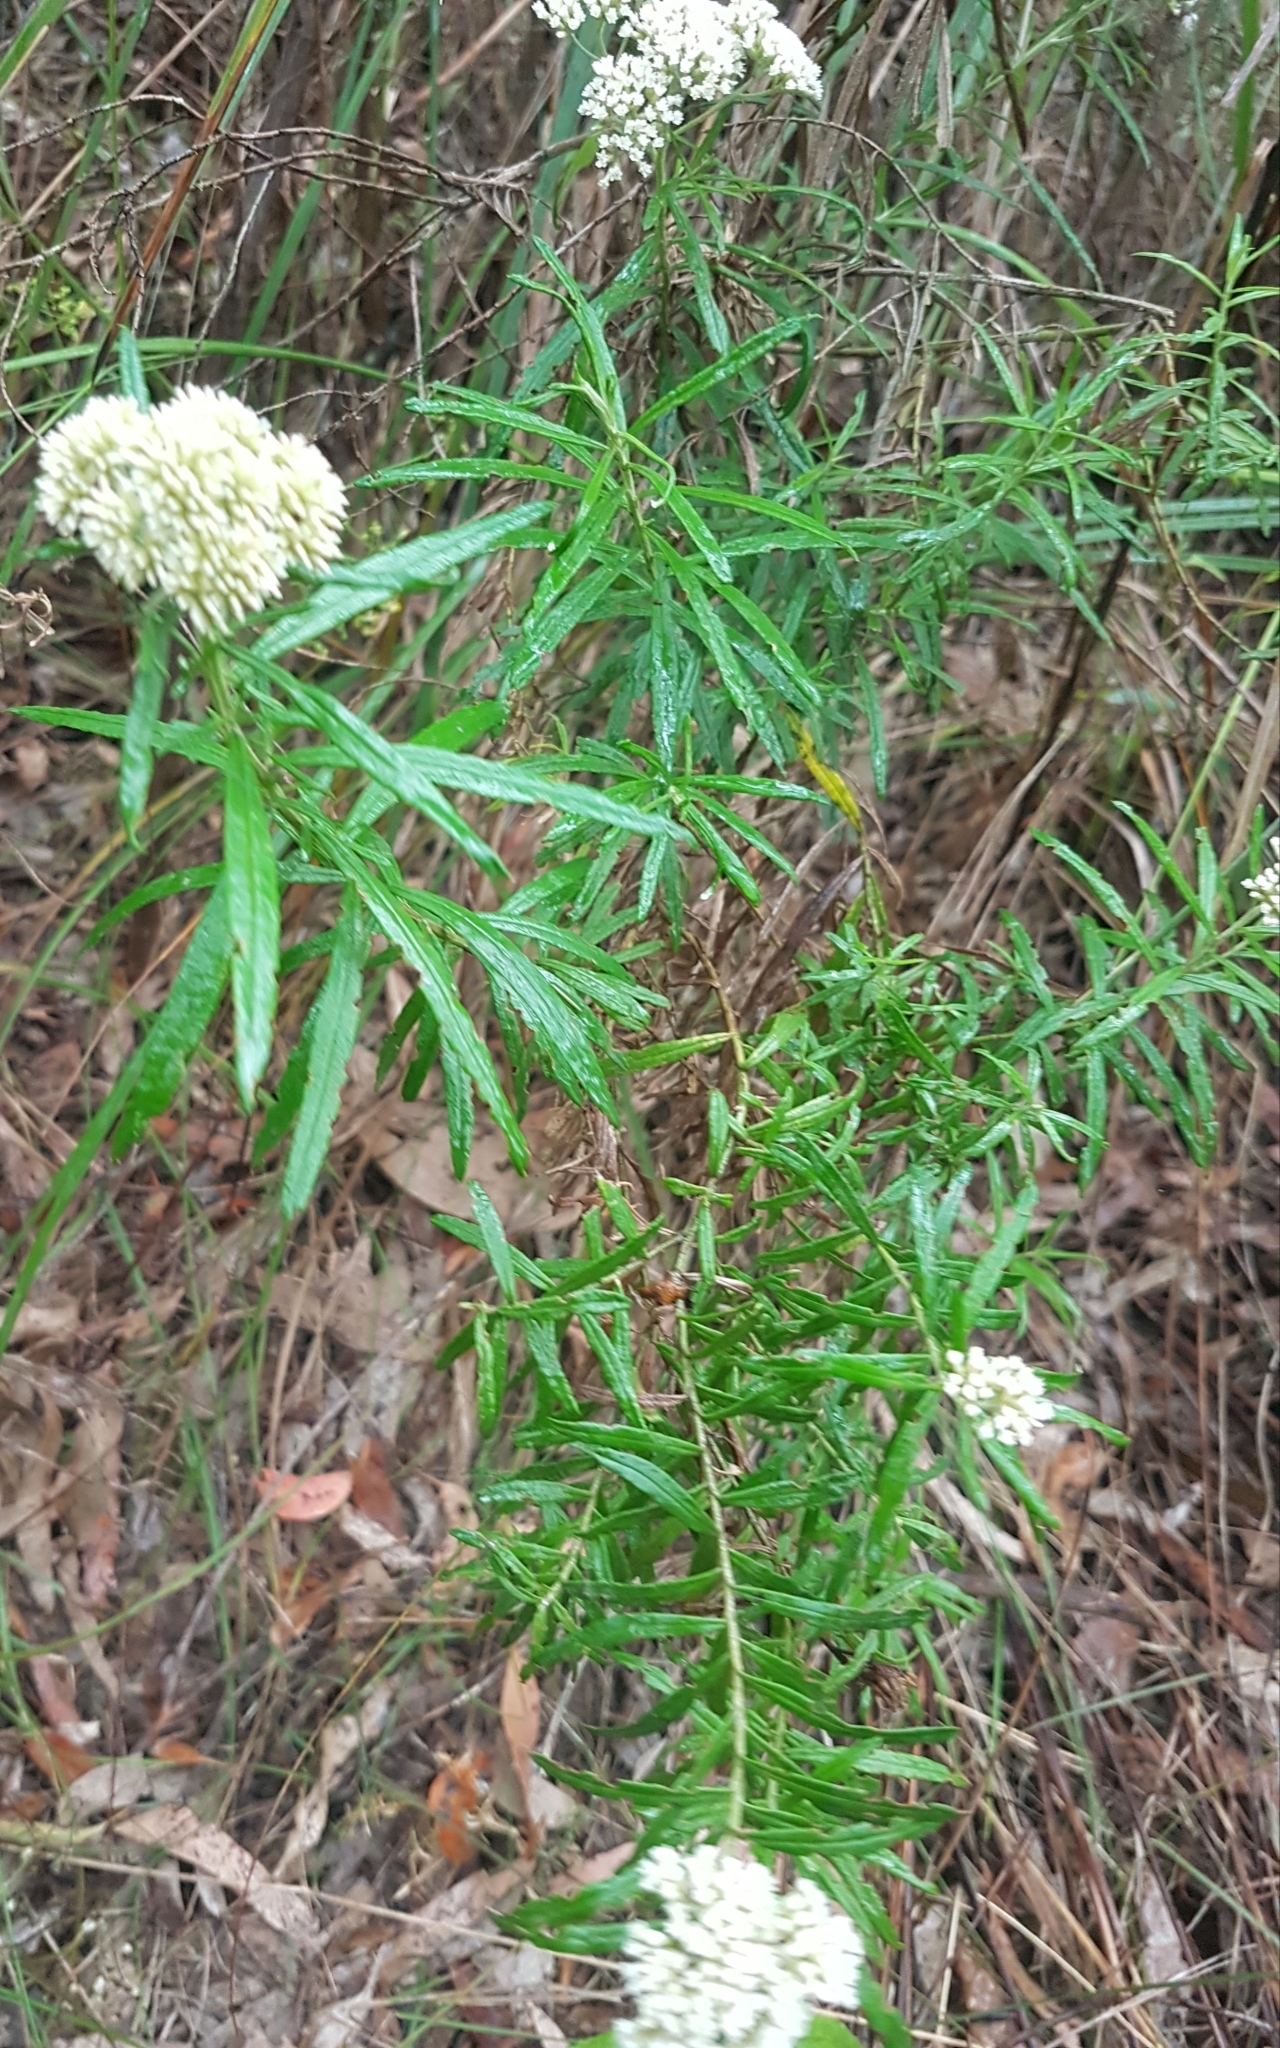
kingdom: Plantae
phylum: Tracheophyta
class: Magnoliopsida
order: Asterales
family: Asteraceae
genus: Ozothamnus
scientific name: Ozothamnus ferrugineus
